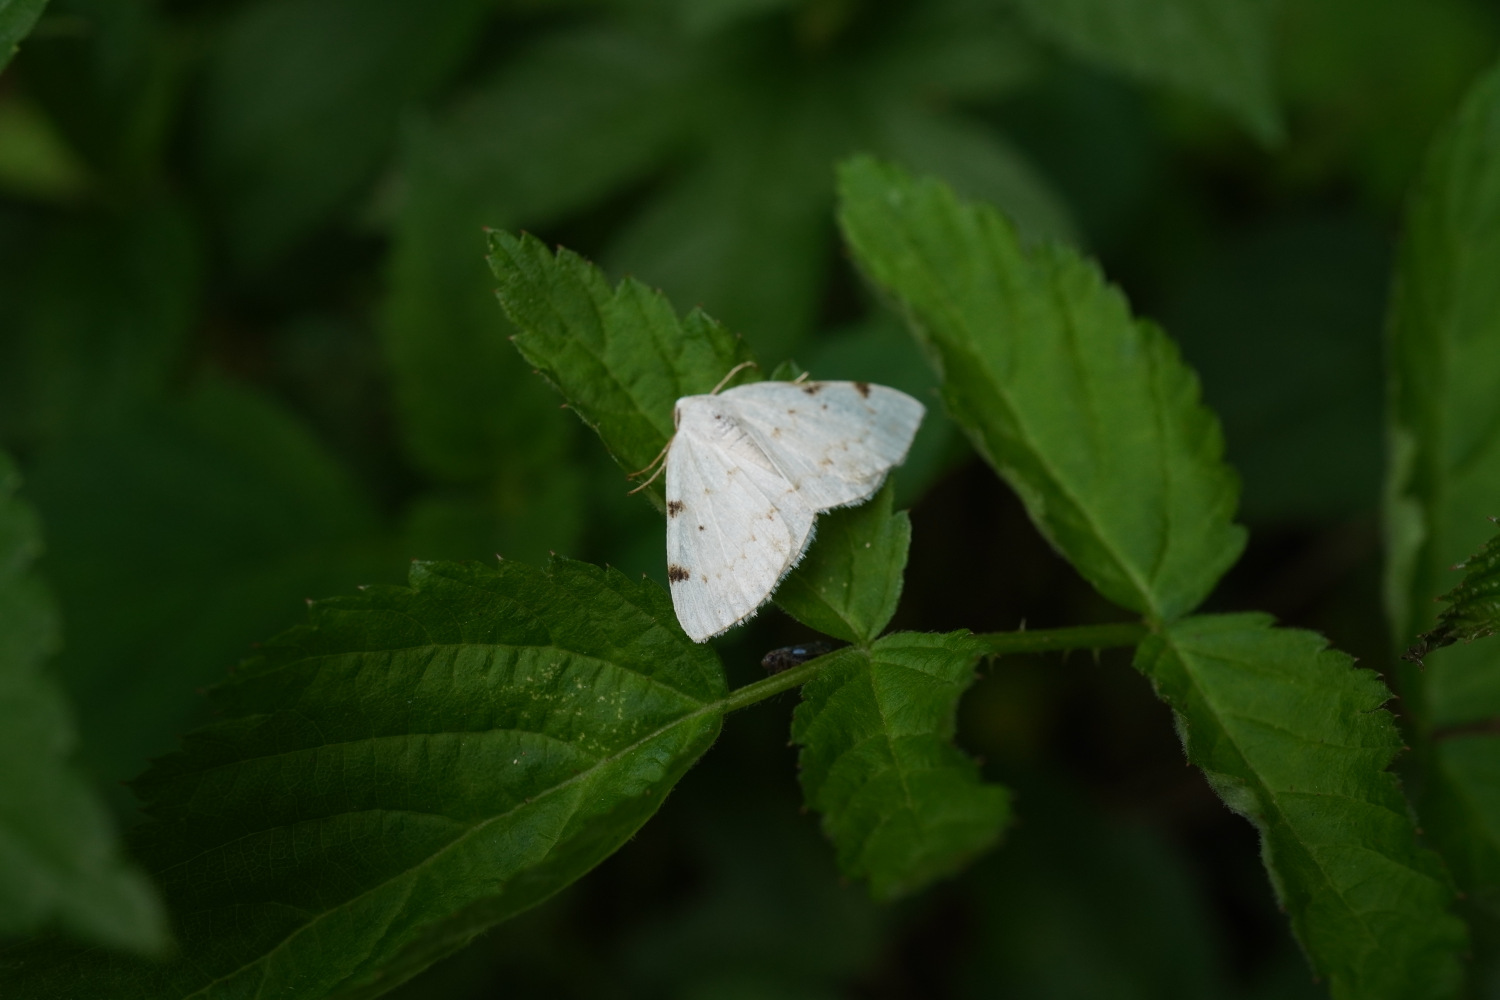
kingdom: Animalia
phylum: Arthropoda
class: Insecta
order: Lepidoptera
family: Geometridae
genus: Lomographa
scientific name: Lomographa bimaculata
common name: White-pinion spotted
